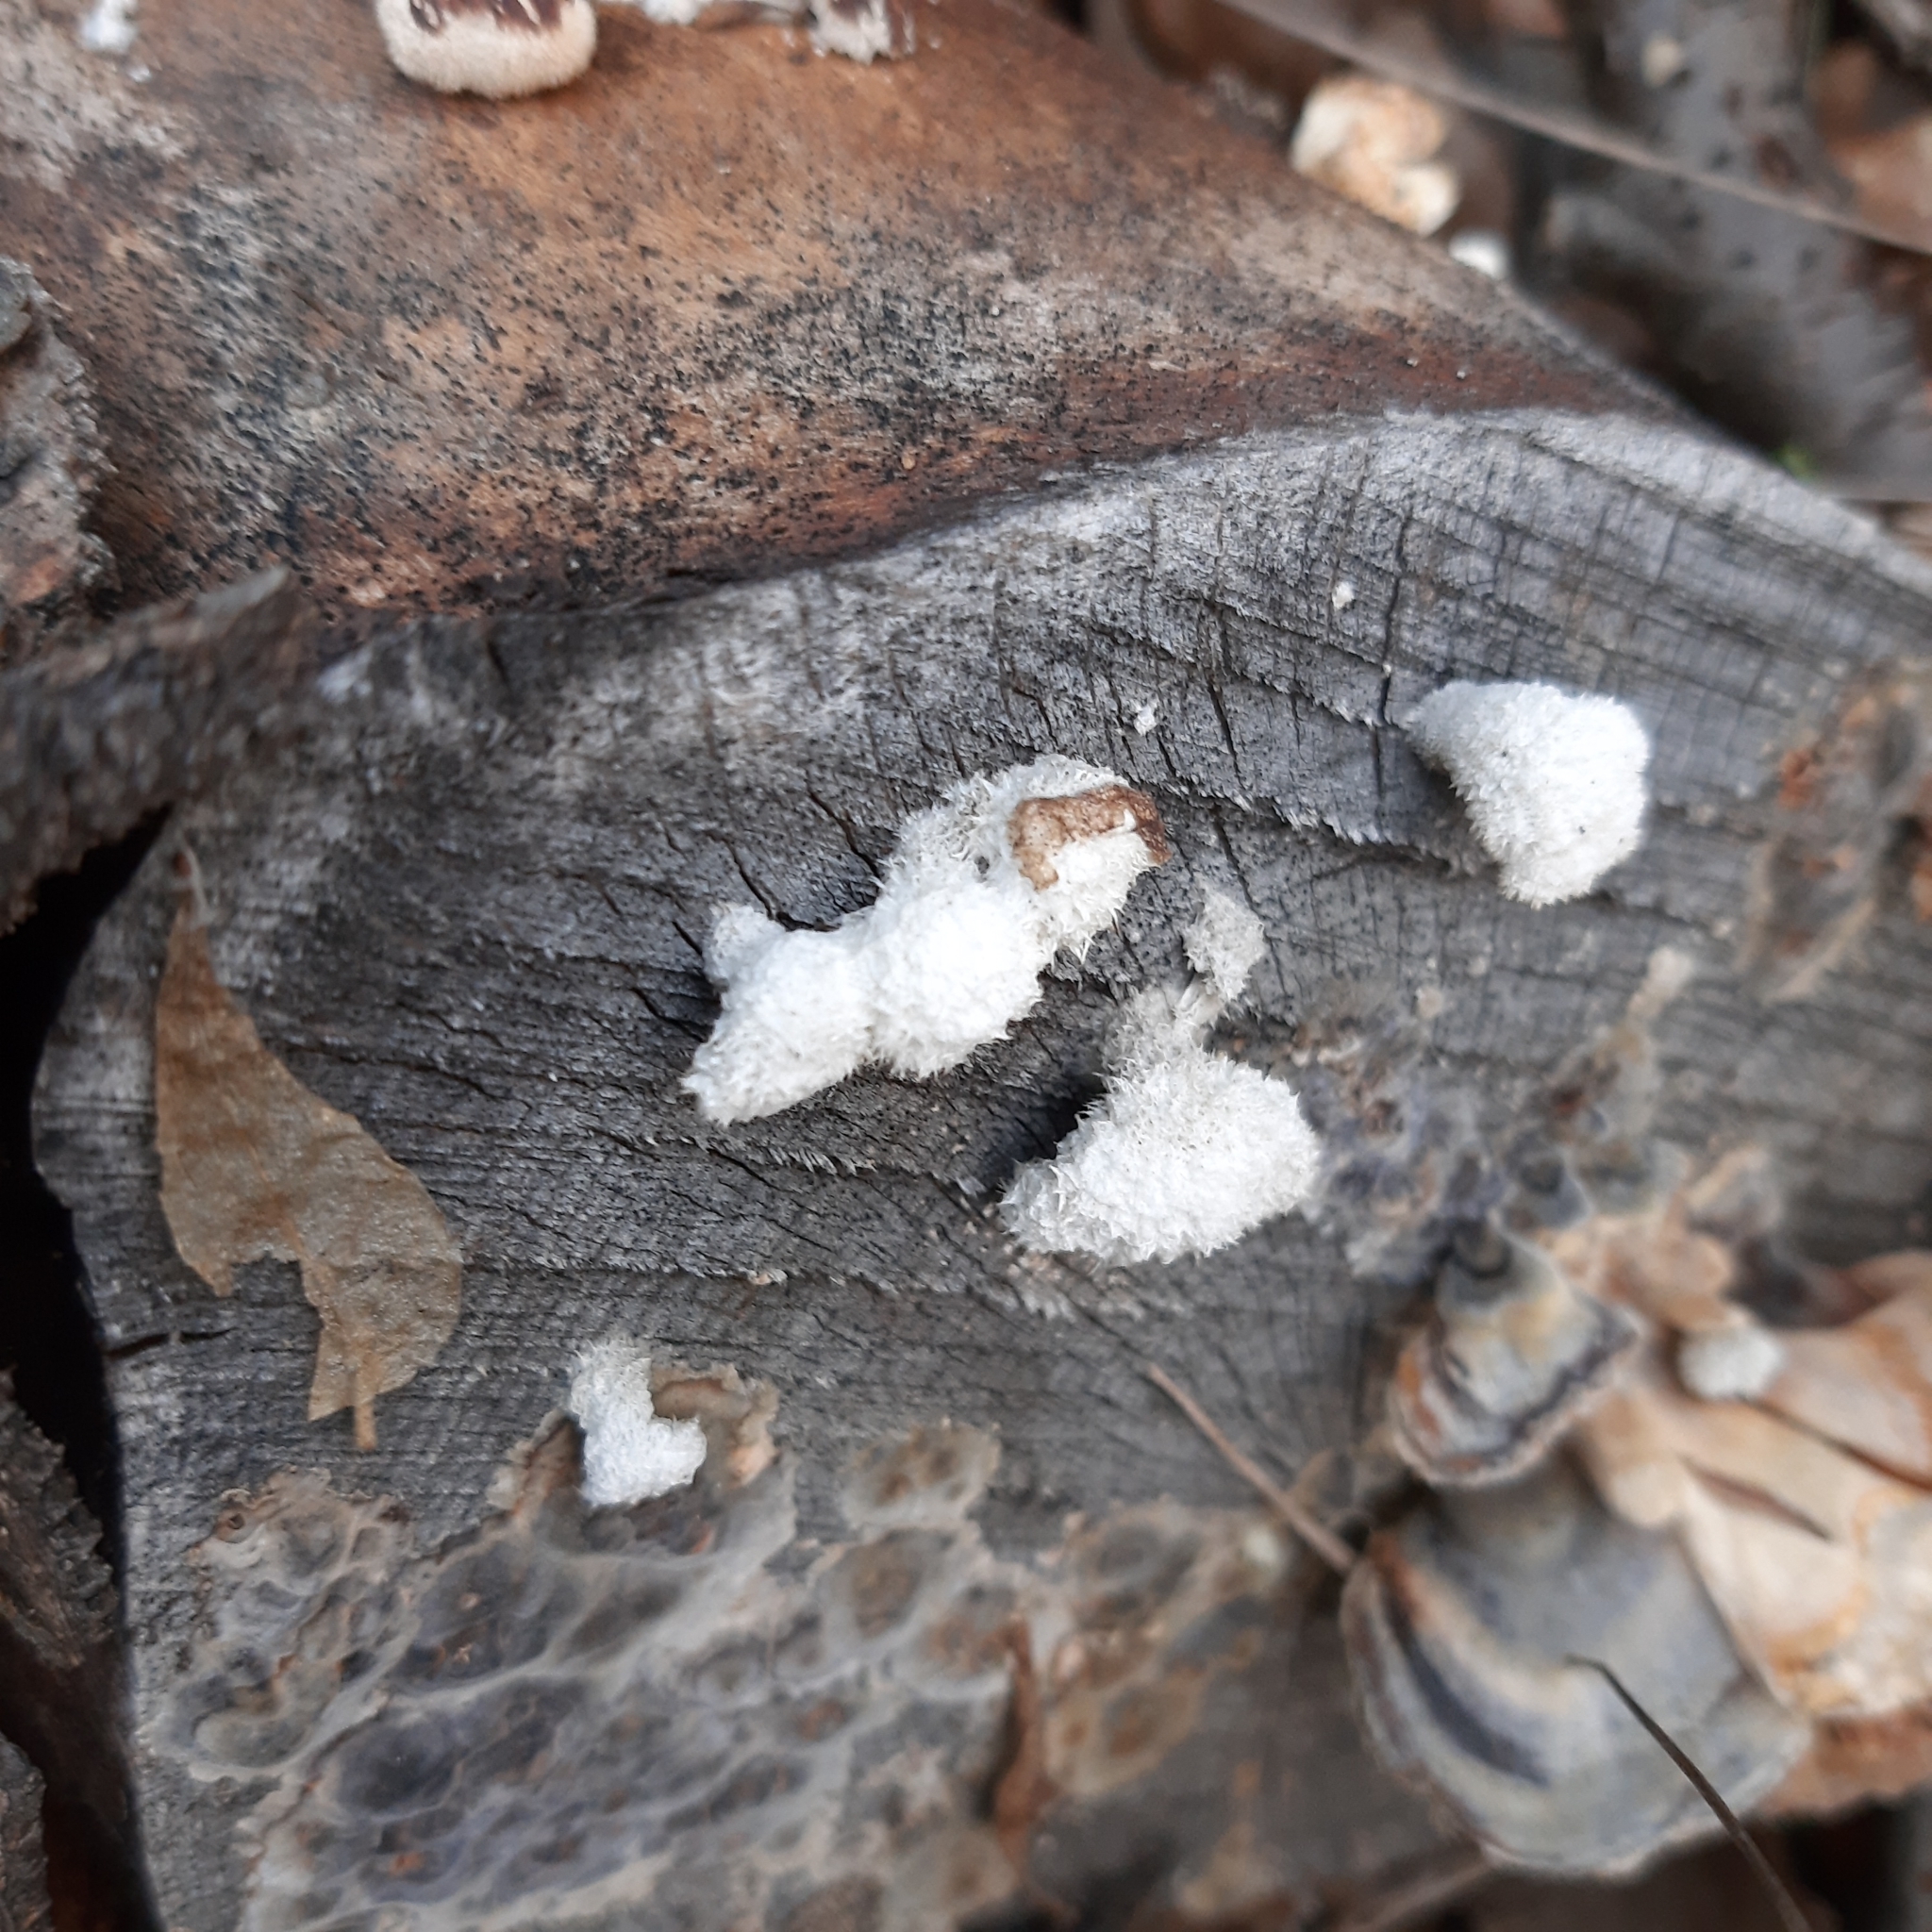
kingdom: Fungi
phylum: Basidiomycota
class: Agaricomycetes
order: Agaricales
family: Schizophyllaceae
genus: Schizophyllum
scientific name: Schizophyllum commune
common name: Common porecrust
